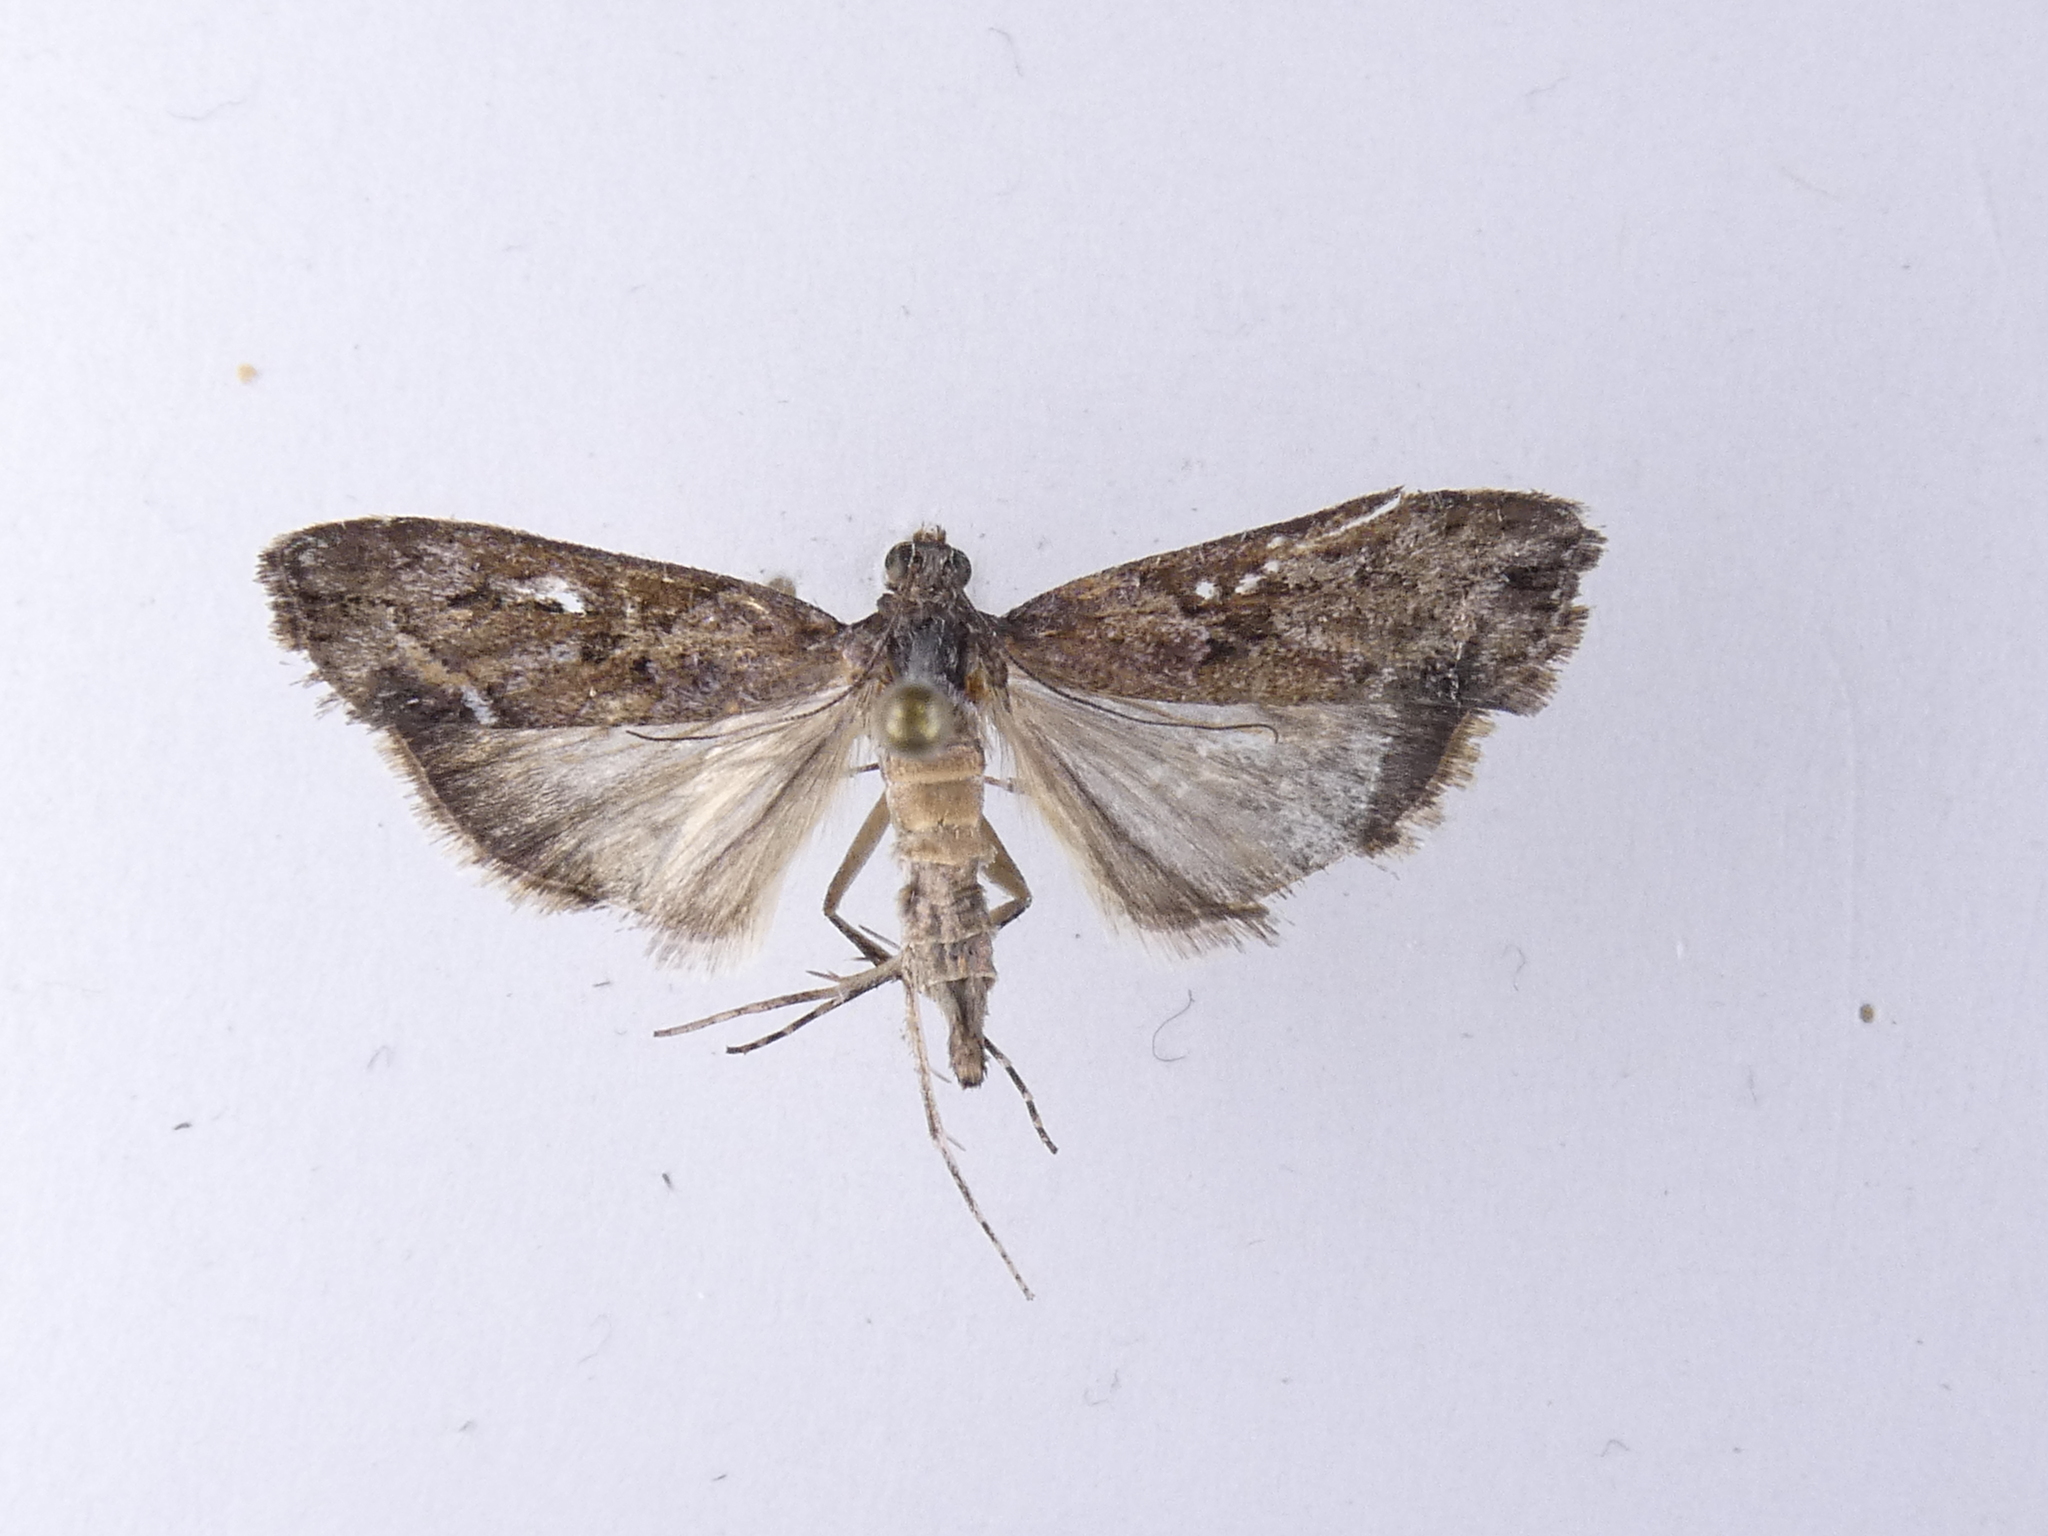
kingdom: Animalia
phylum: Arthropoda
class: Insecta
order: Lepidoptera
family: Crambidae
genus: Eudonia
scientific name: Eudonia submarginalis
